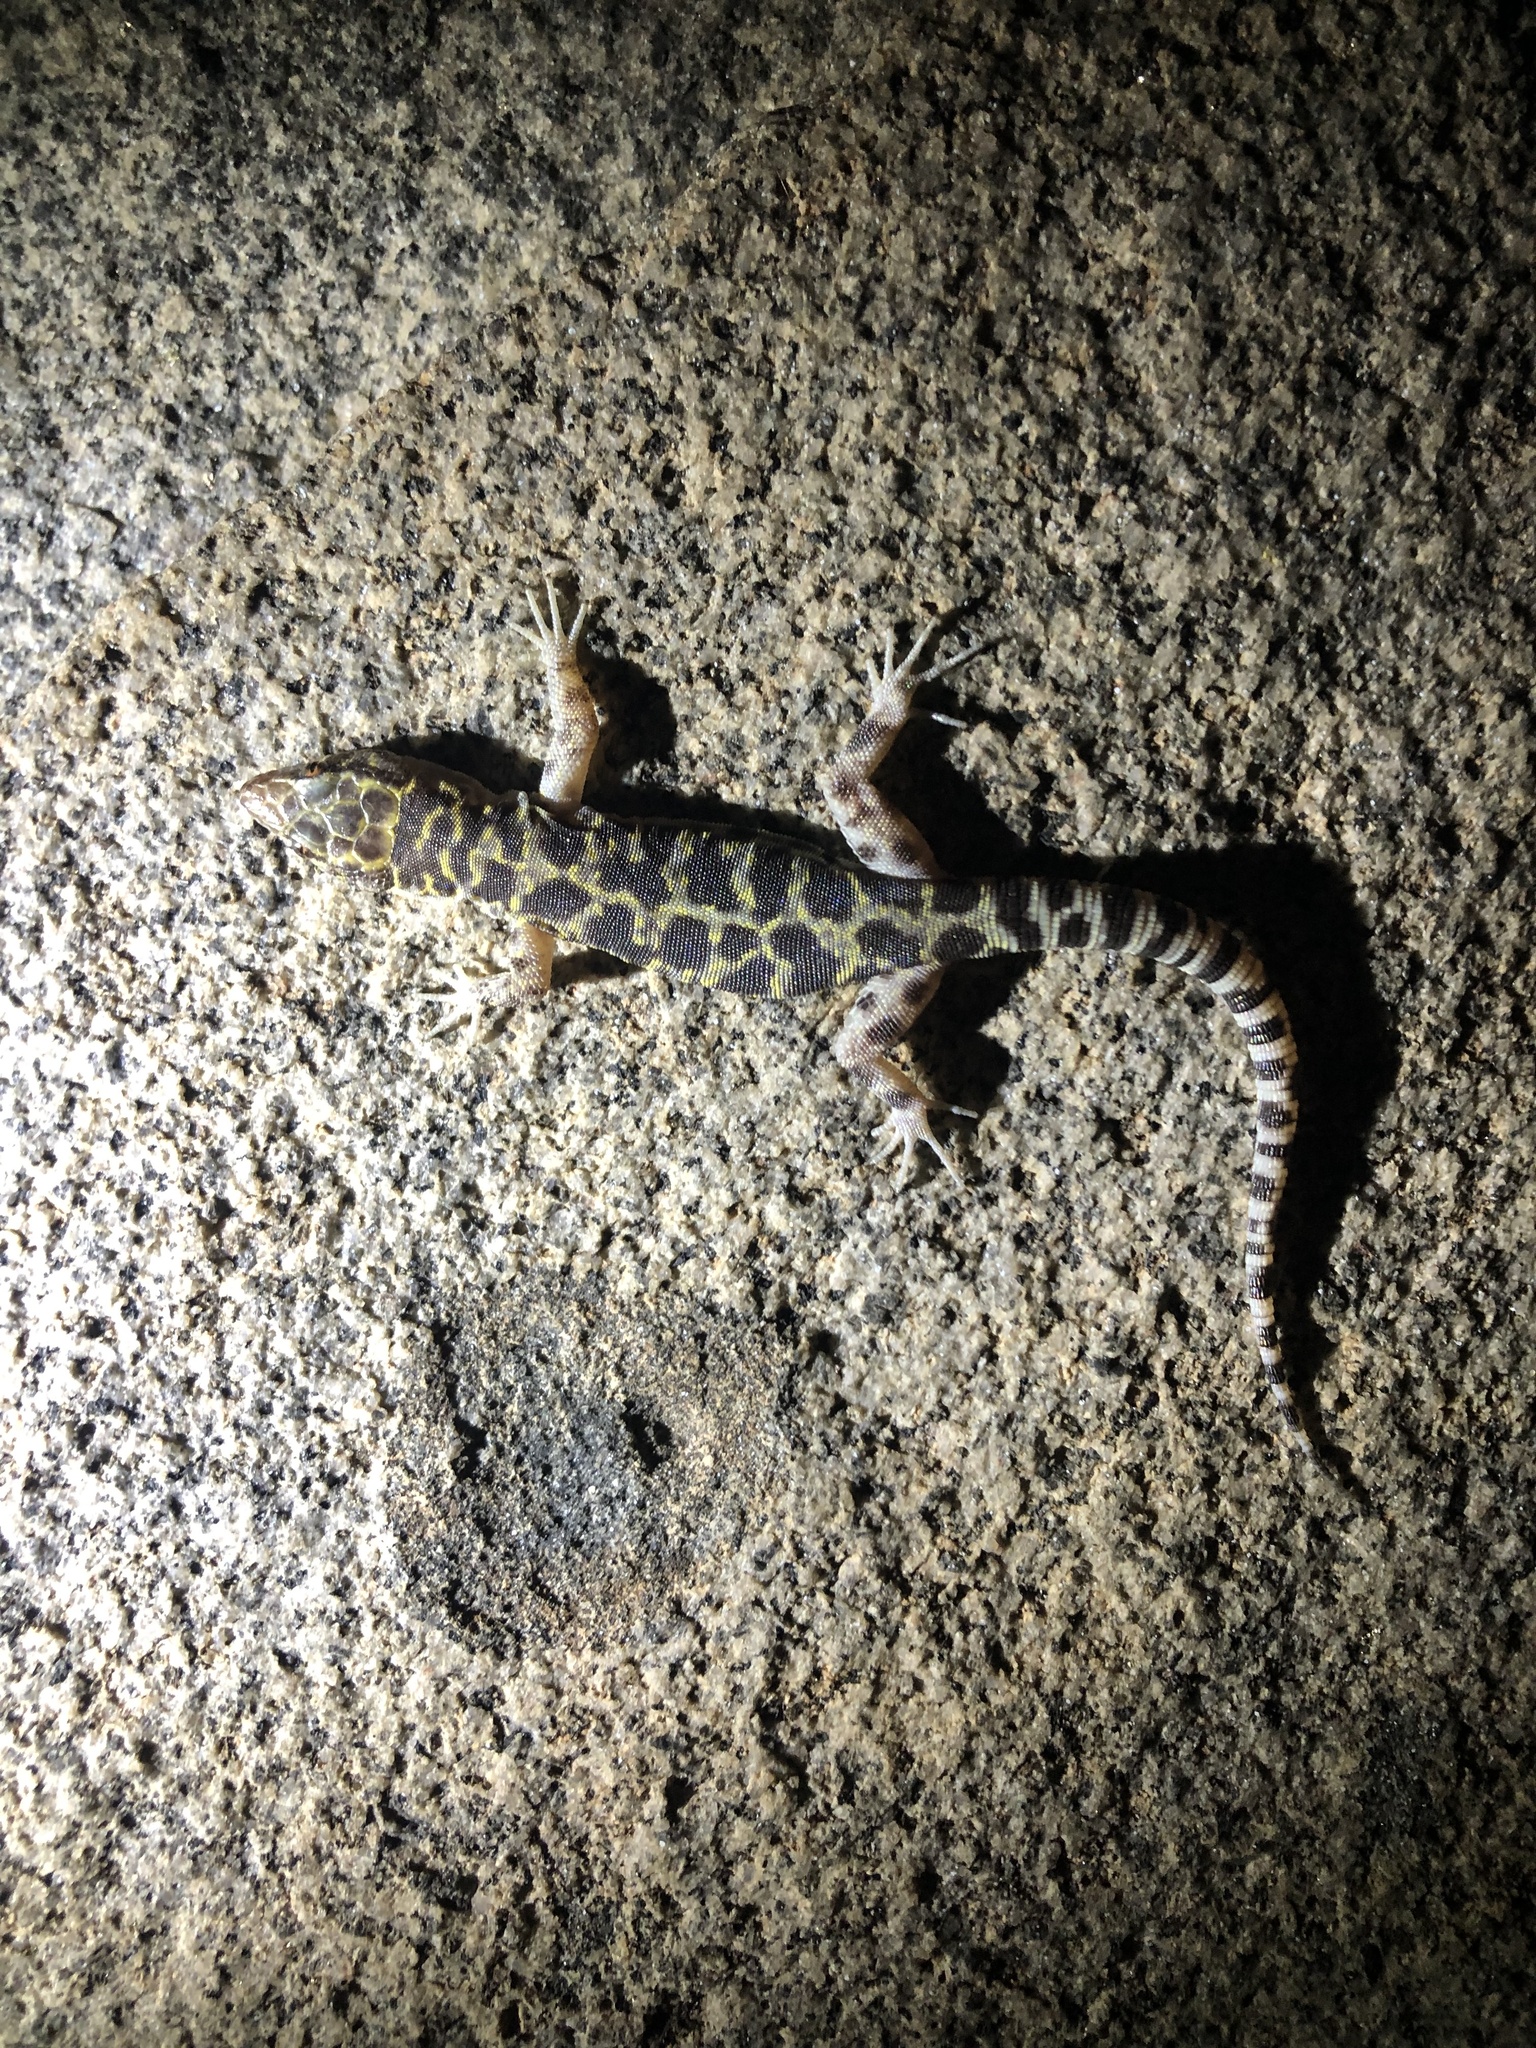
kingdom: Animalia
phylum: Chordata
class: Squamata
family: Xantusiidae
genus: Xantusia
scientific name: Xantusia henshawi
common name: Granite night lizard
